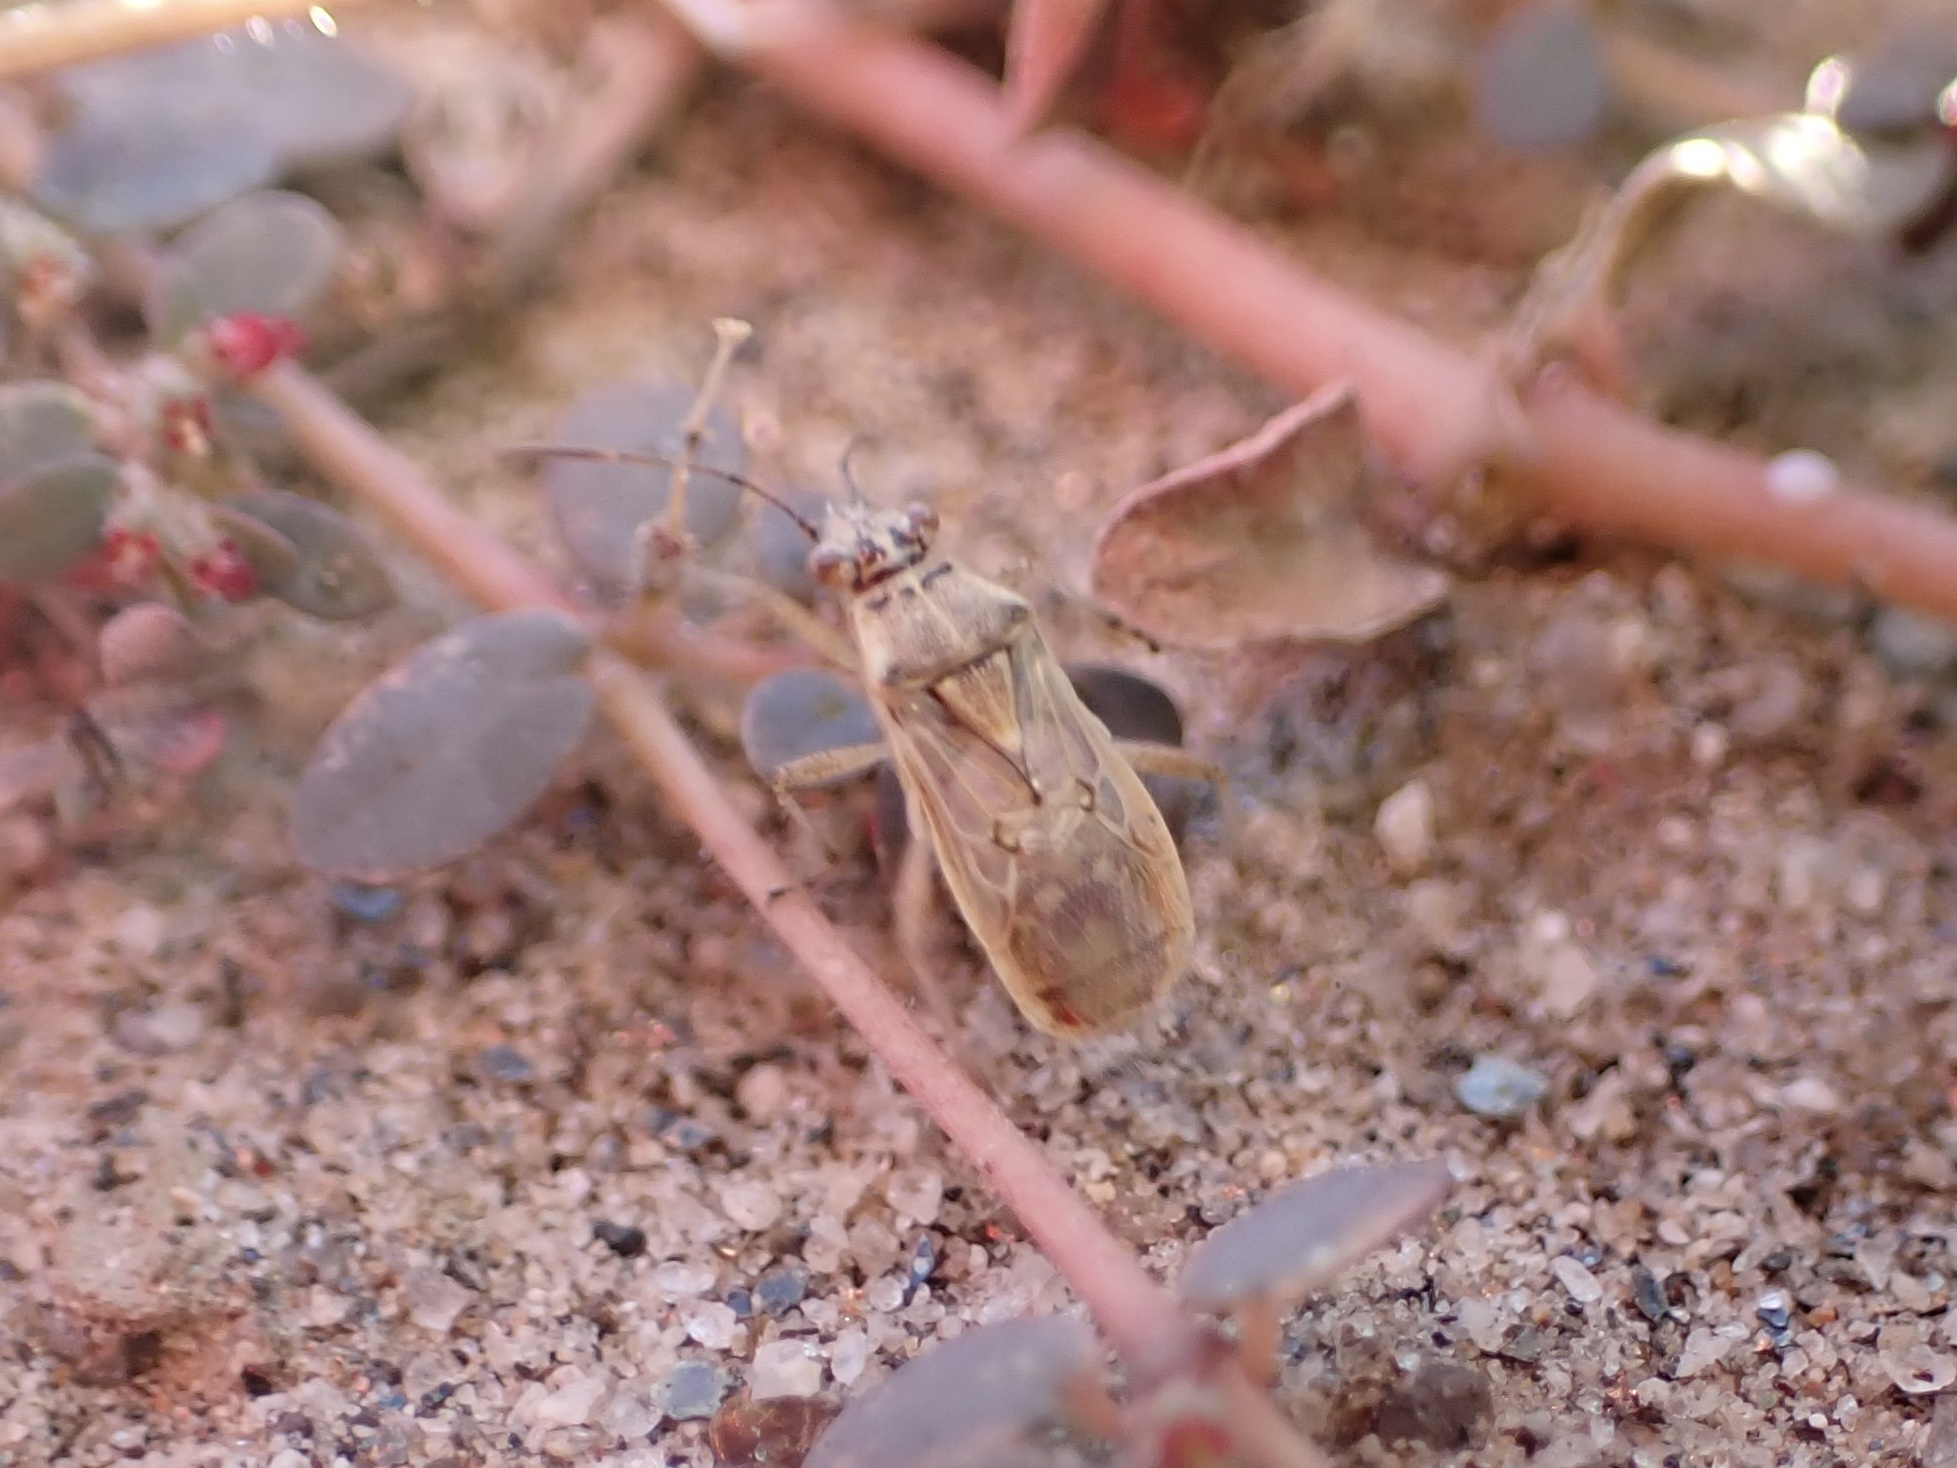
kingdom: Animalia
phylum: Arthropoda
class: Insecta
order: Hemiptera
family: Rhopalidae
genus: Liorhyssus
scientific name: Liorhyssus hyalinus
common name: Scentless plant bug
